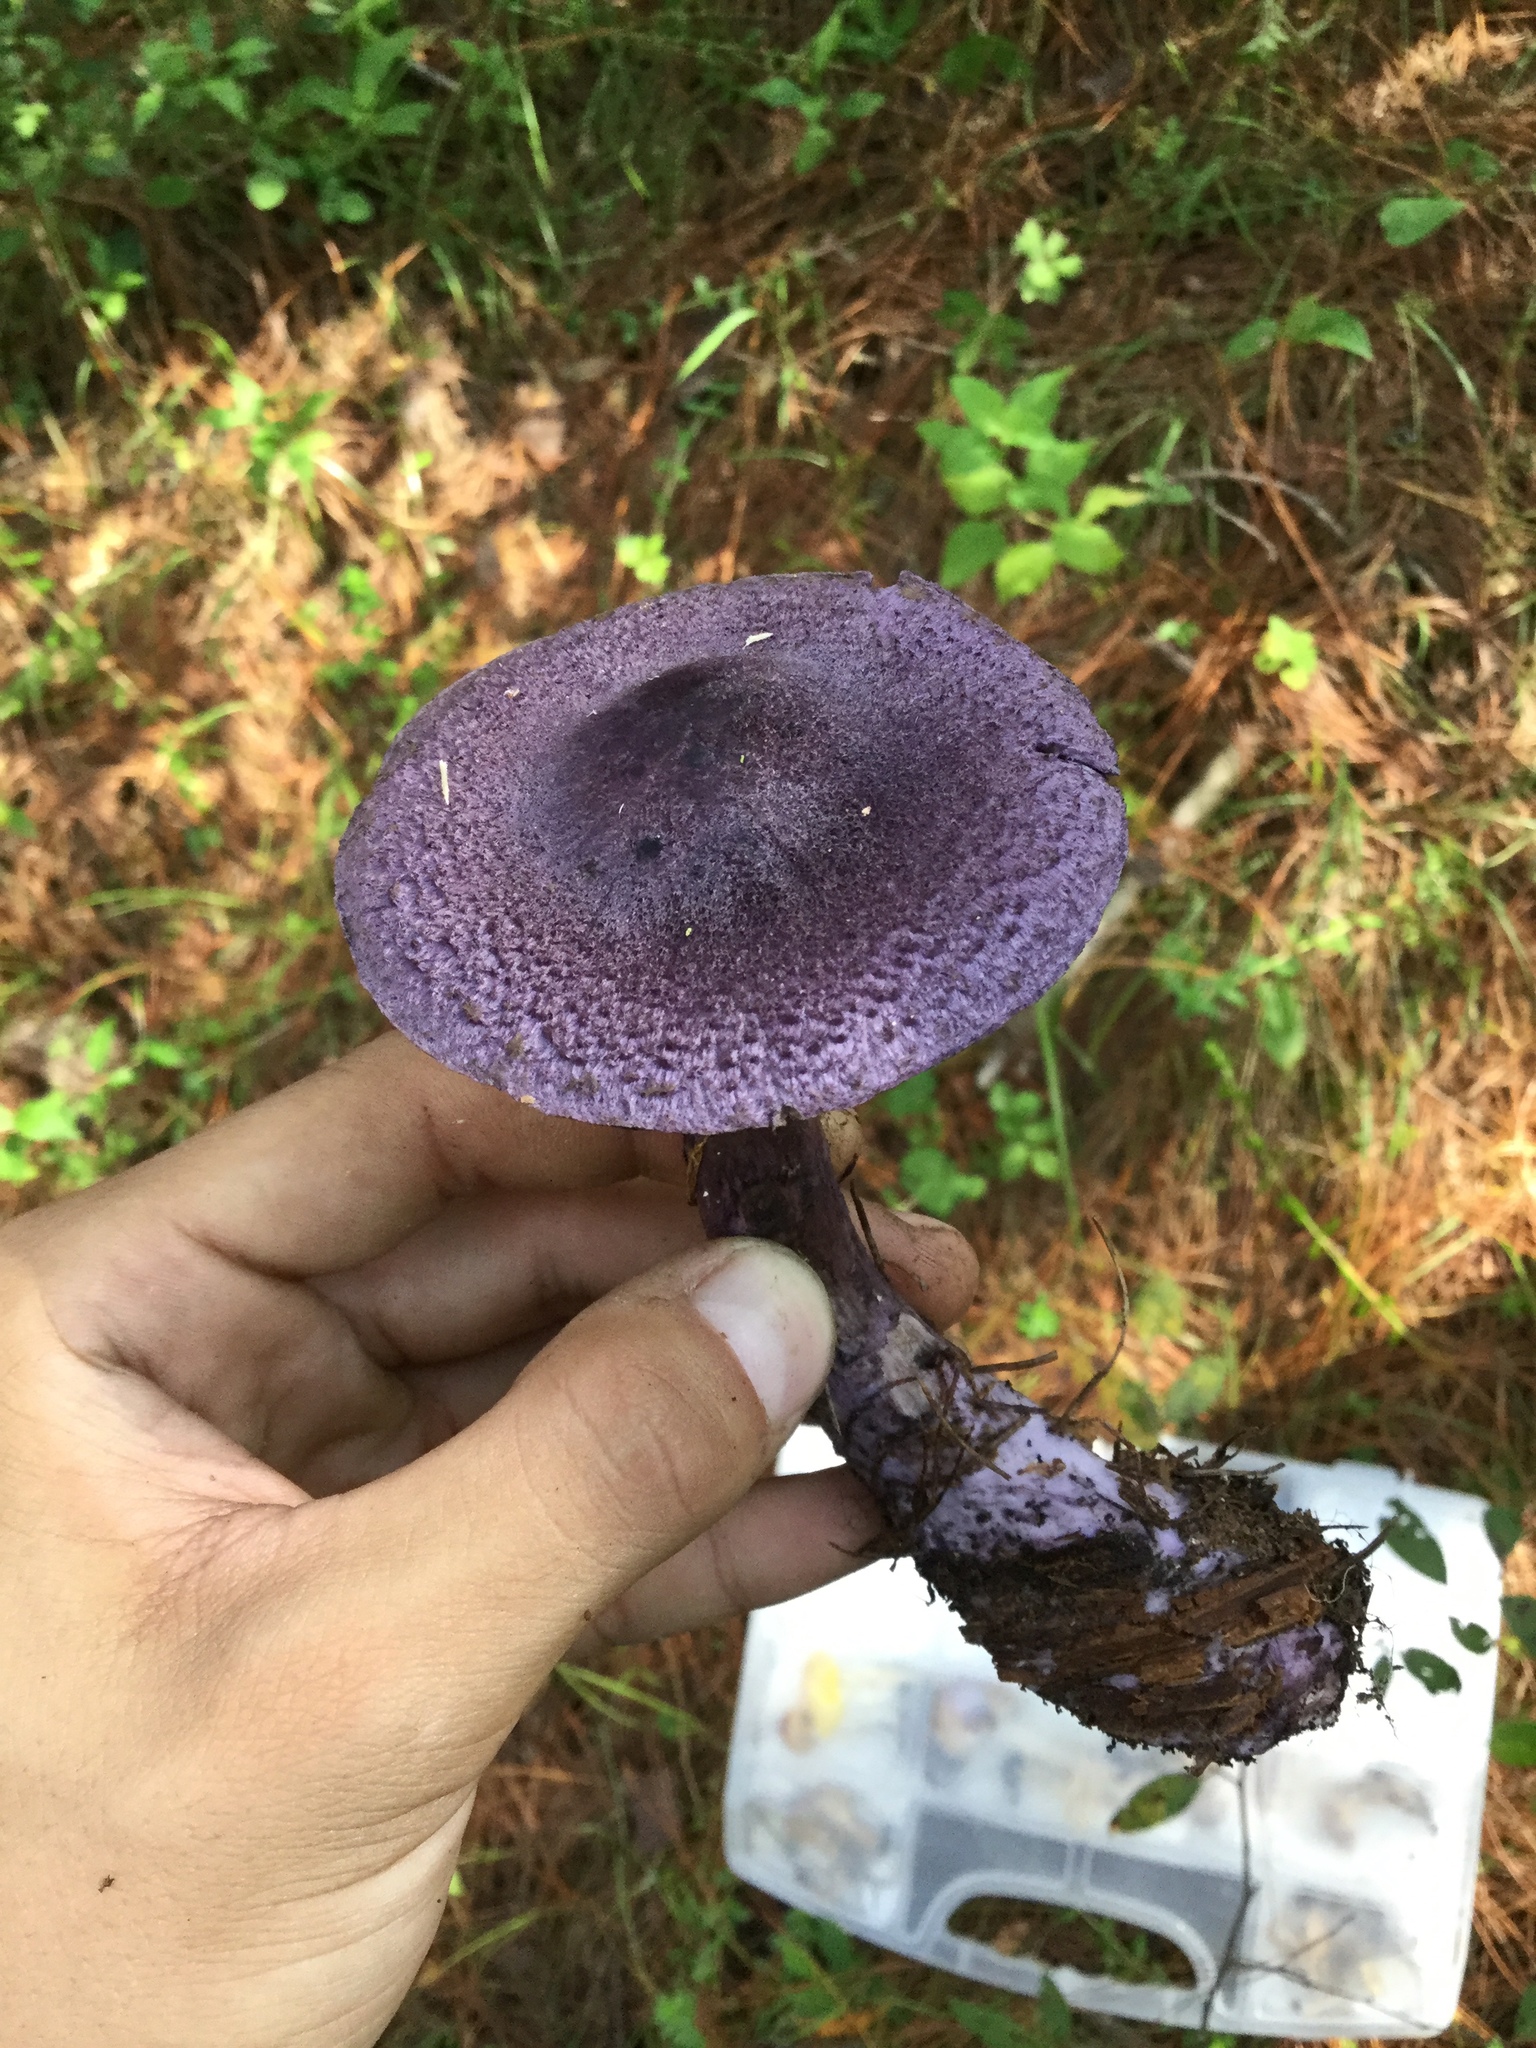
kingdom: Fungi
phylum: Basidiomycota
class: Agaricomycetes
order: Agaricales
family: Cortinariaceae
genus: Cortinarius
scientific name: Cortinarius violaceus
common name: Violet webcap
